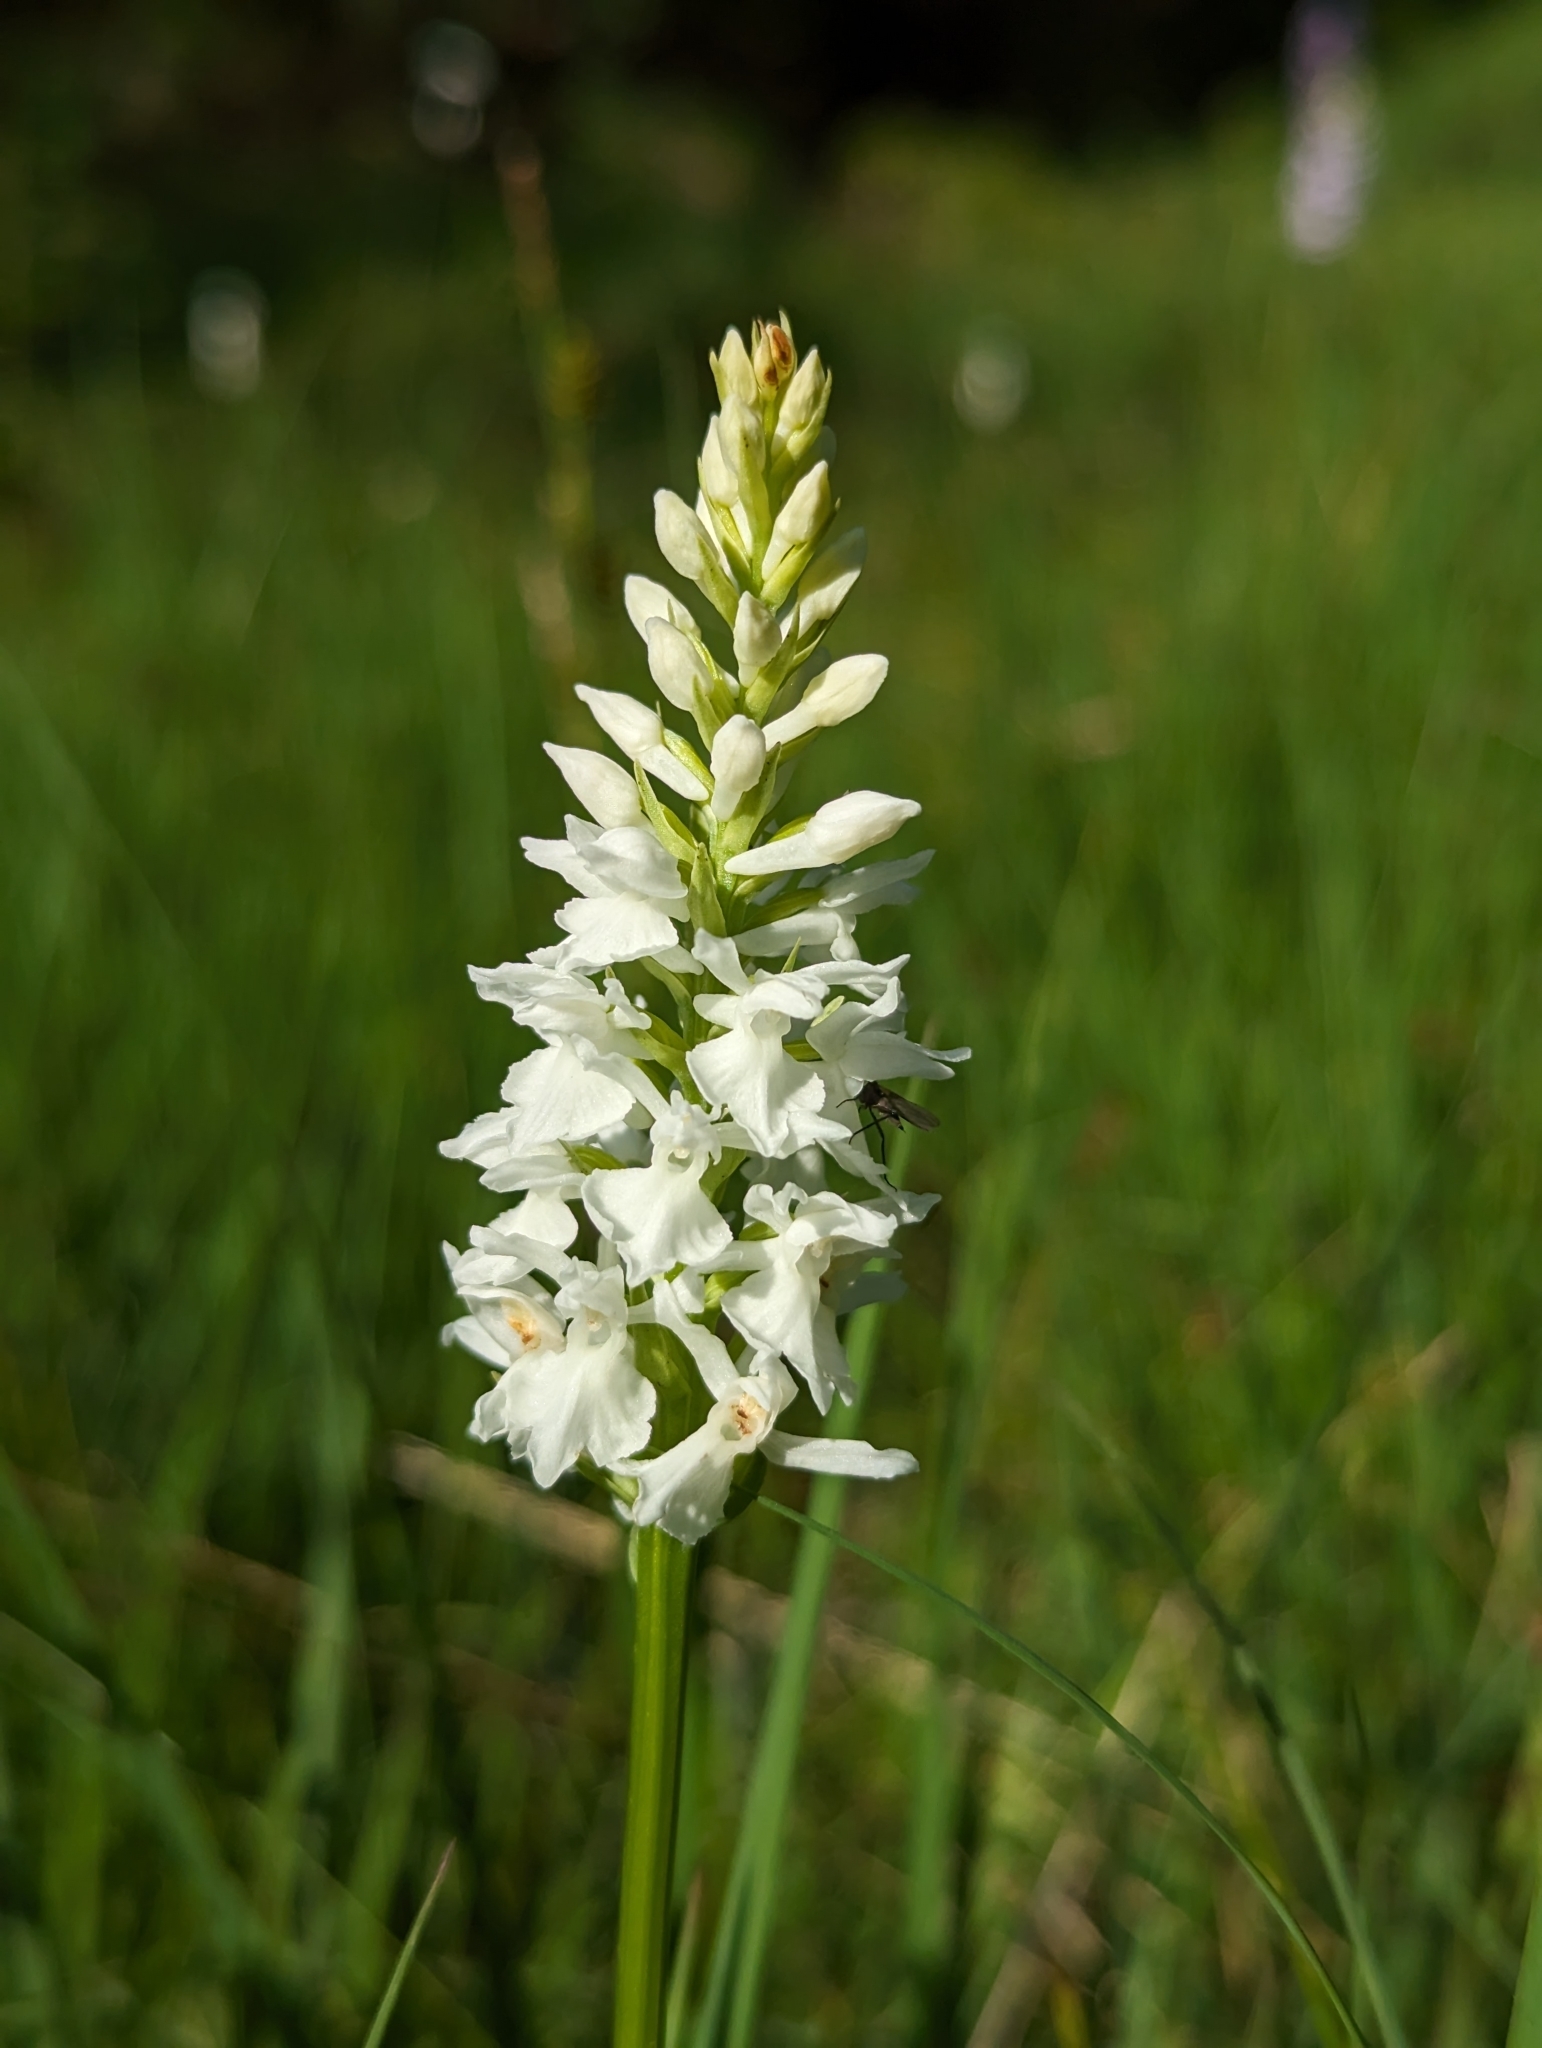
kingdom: Plantae
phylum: Tracheophyta
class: Liliopsida
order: Asparagales
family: Orchidaceae
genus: Dactylorhiza
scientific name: Dactylorhiza maculata
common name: Heath spotted-orchid
